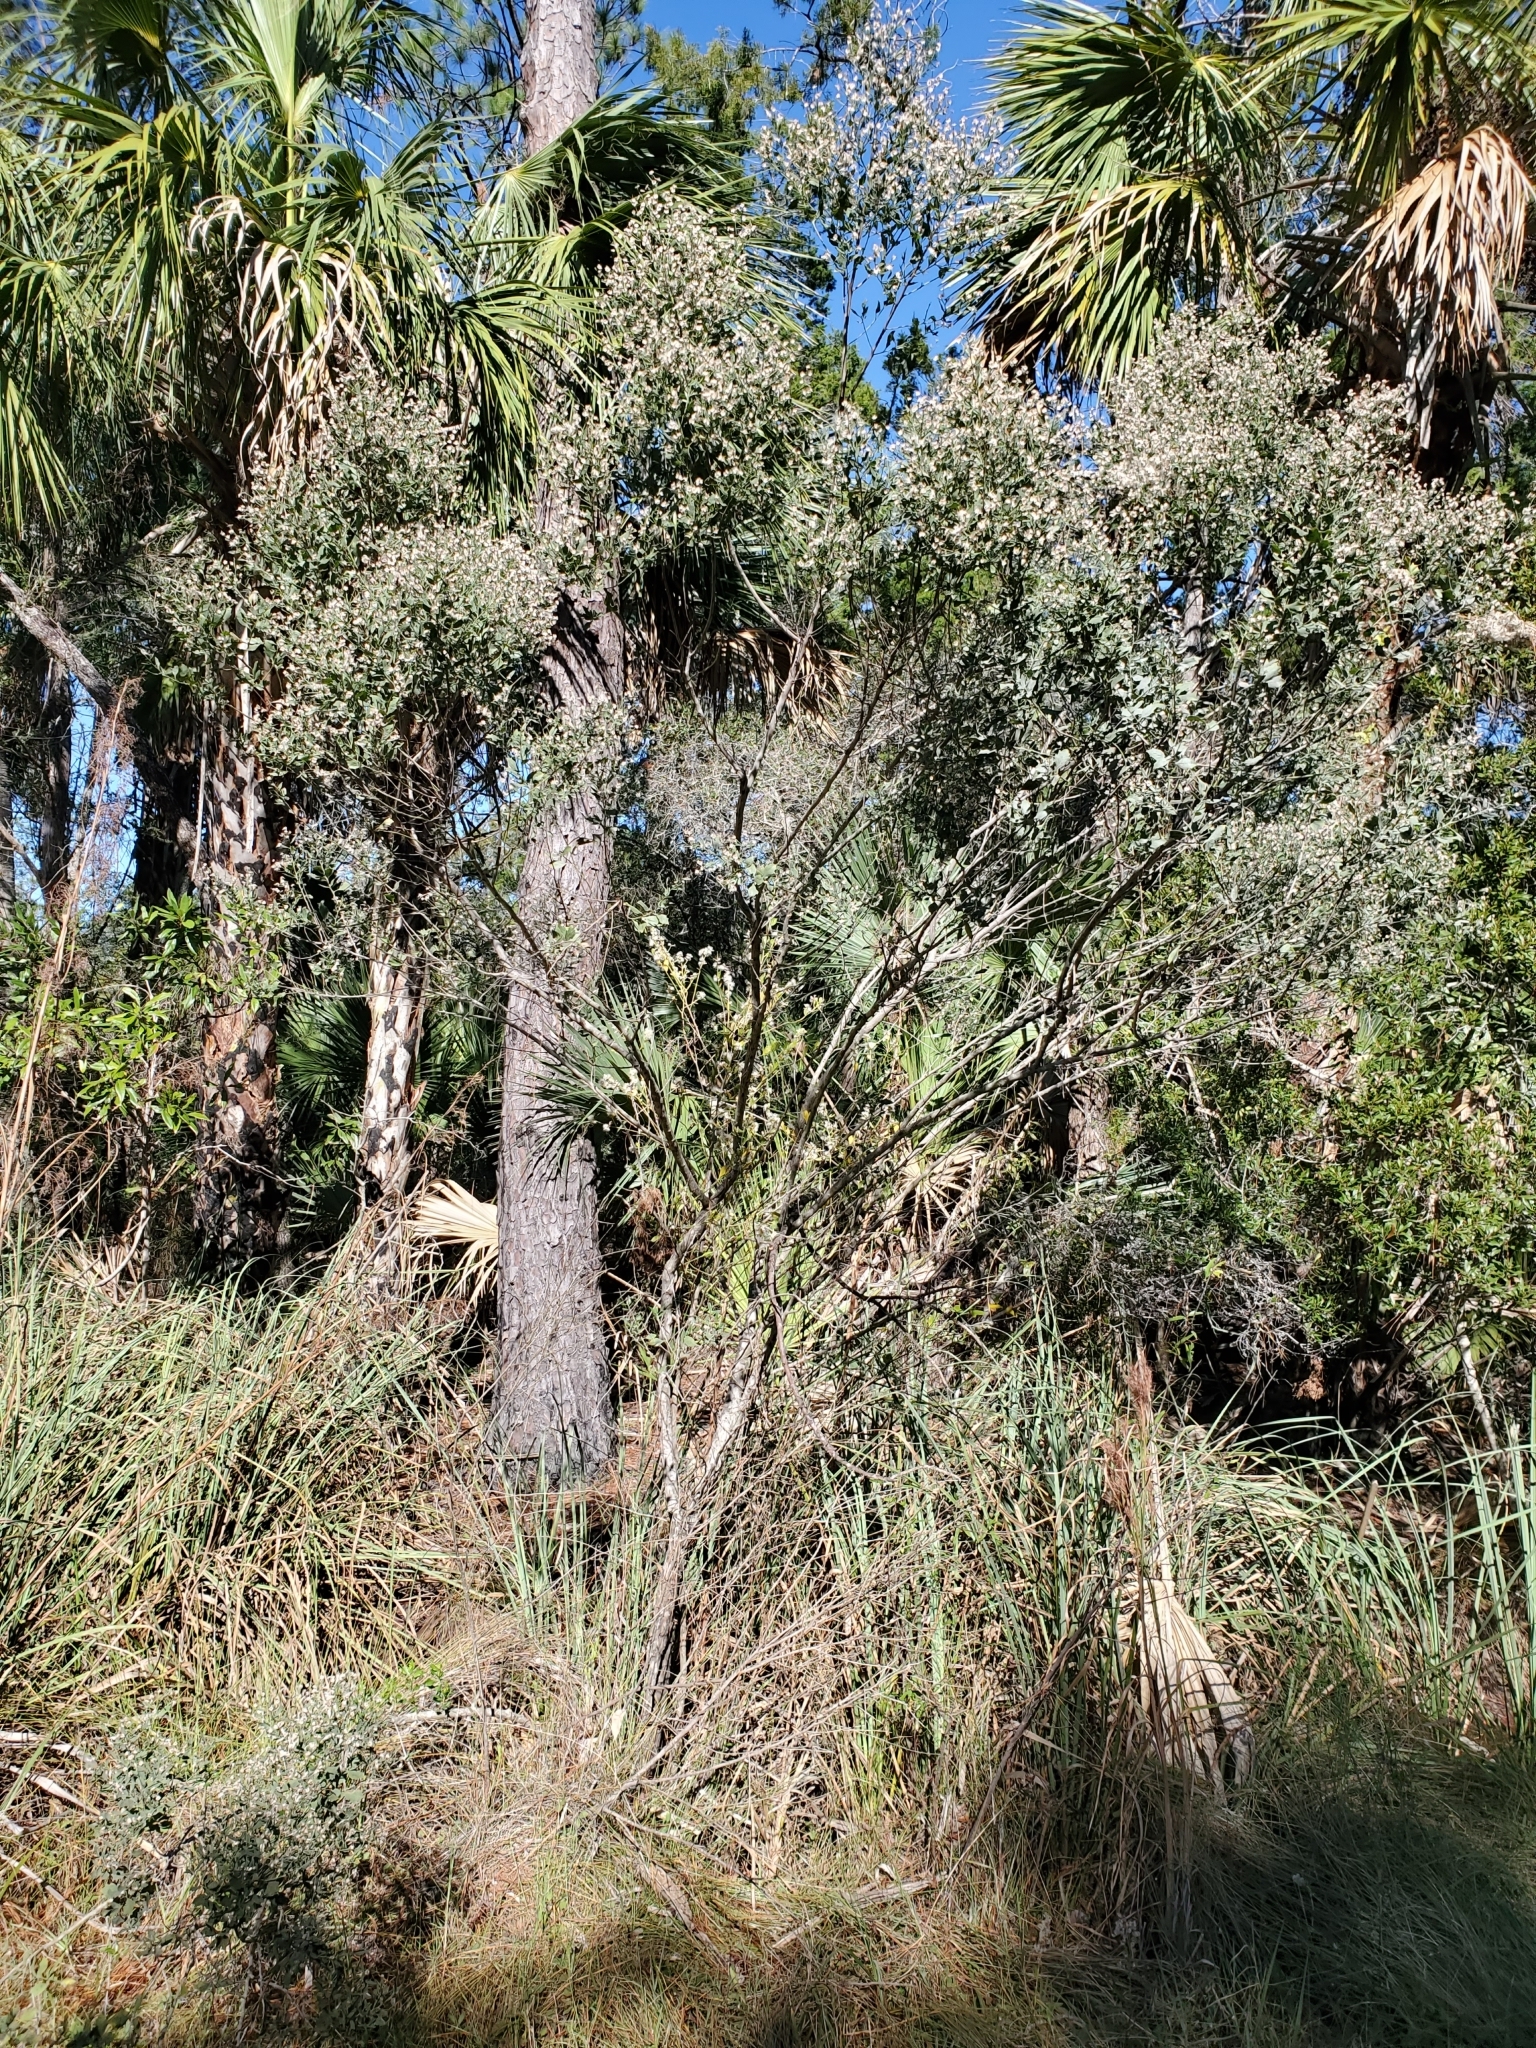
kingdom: Plantae
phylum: Tracheophyta
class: Magnoliopsida
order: Asterales
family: Asteraceae
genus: Baccharis
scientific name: Baccharis halimifolia
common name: Eastern baccharis
